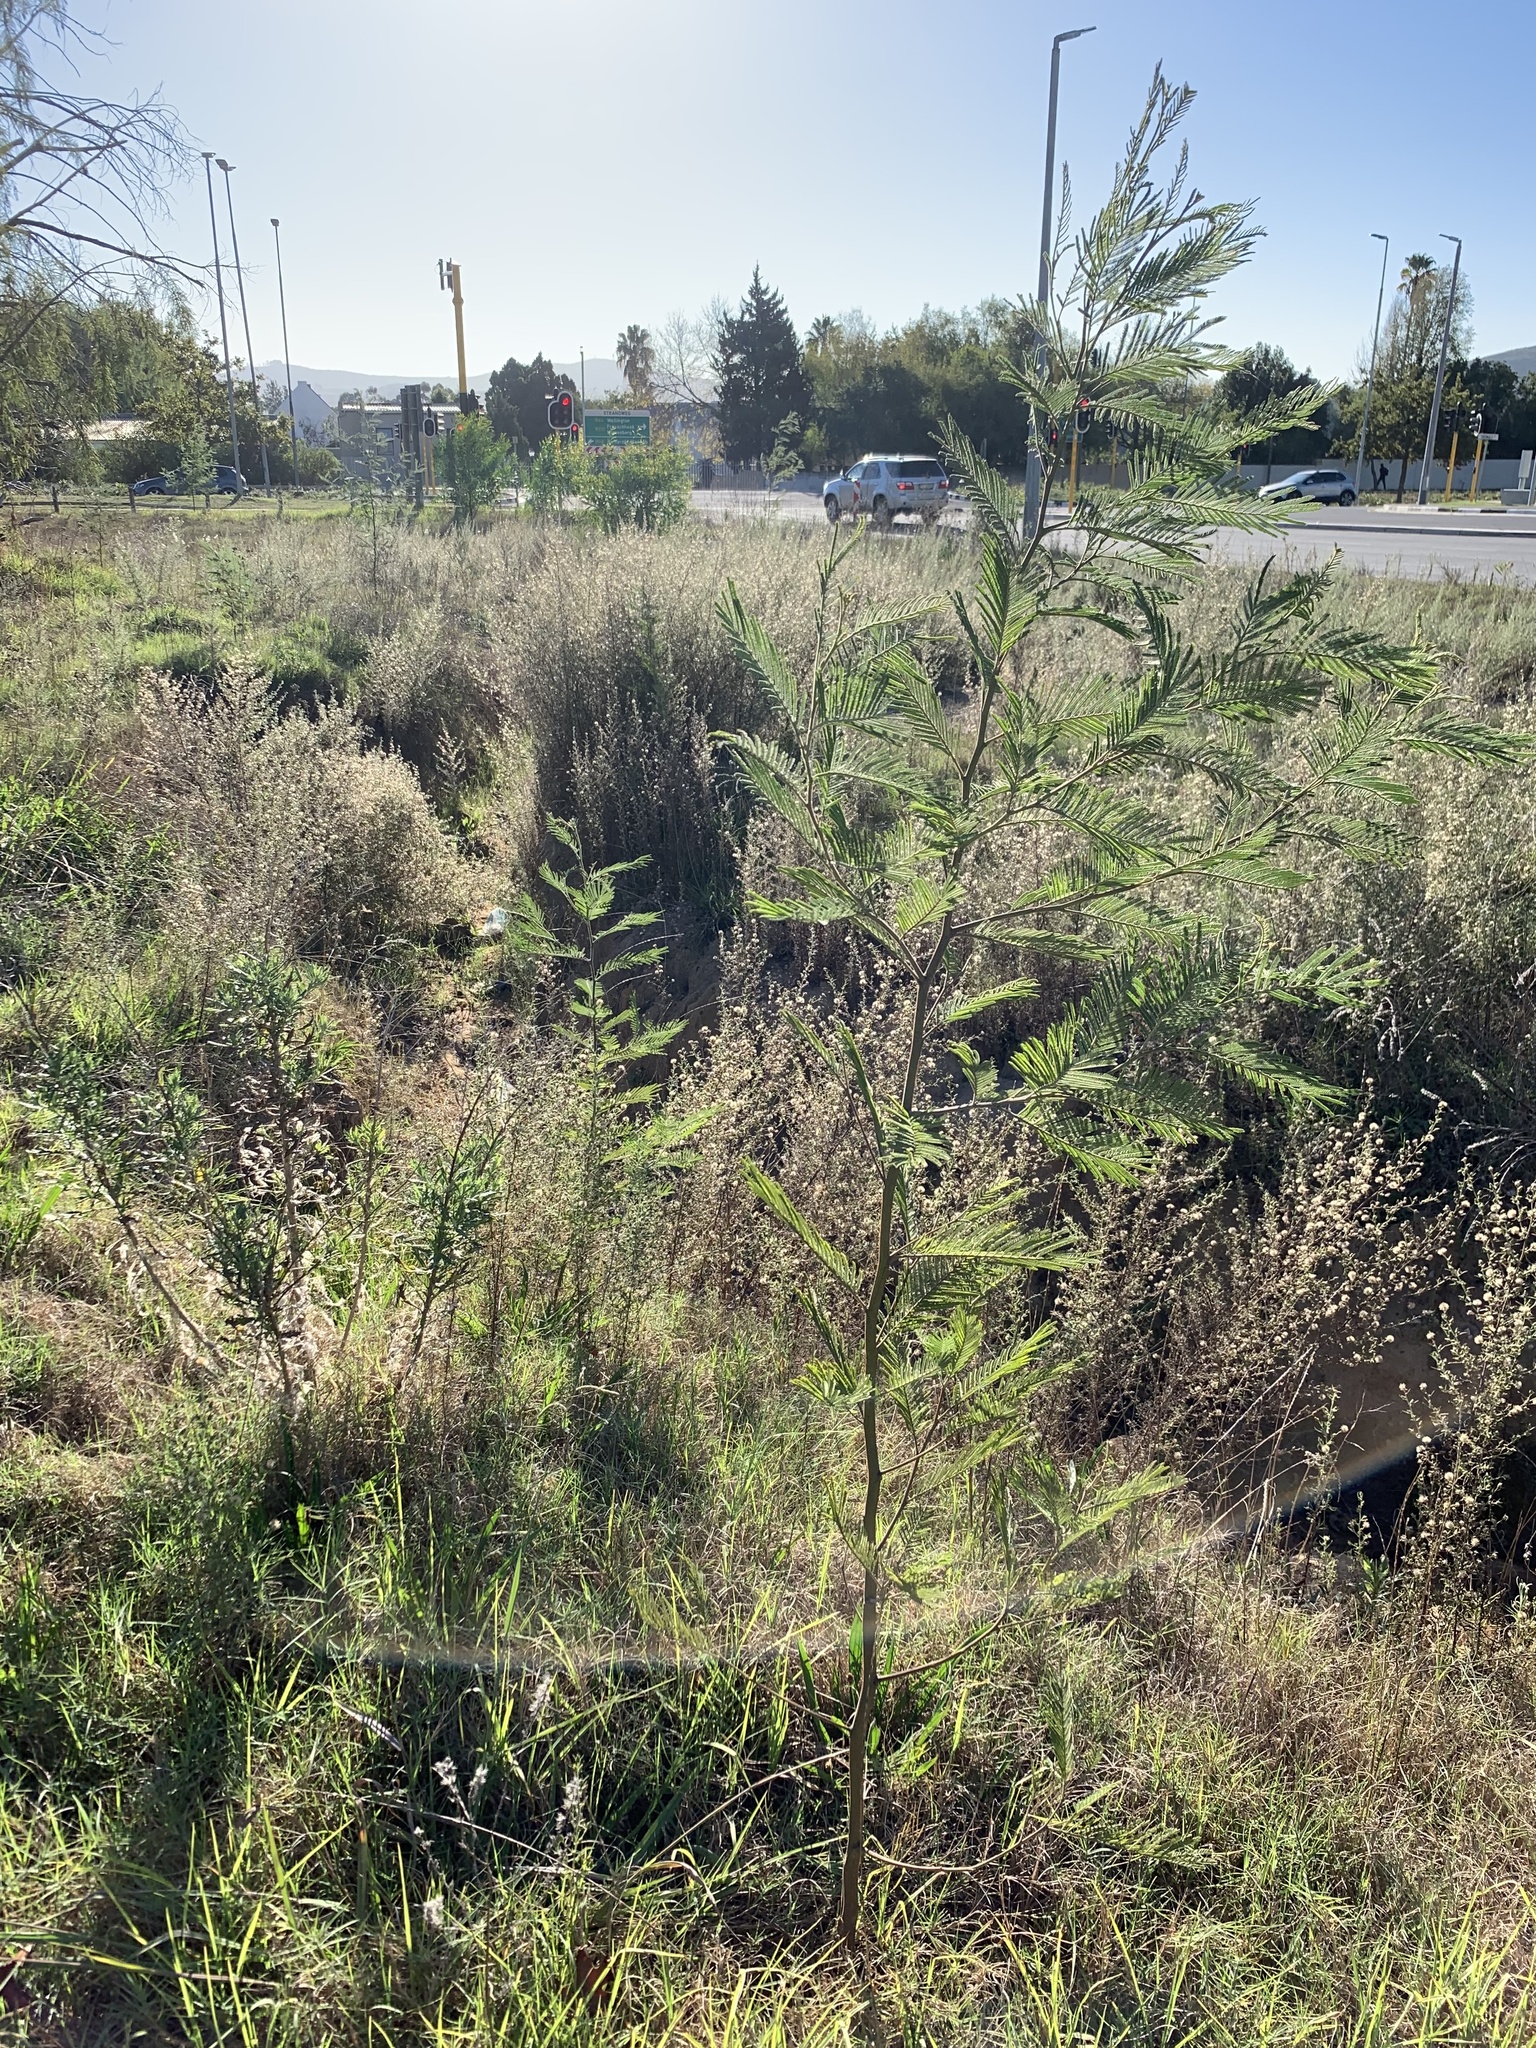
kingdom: Plantae
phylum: Tracheophyta
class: Magnoliopsida
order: Fabales
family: Fabaceae
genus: Acacia
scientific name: Acacia mearnsii
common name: Black wattle
